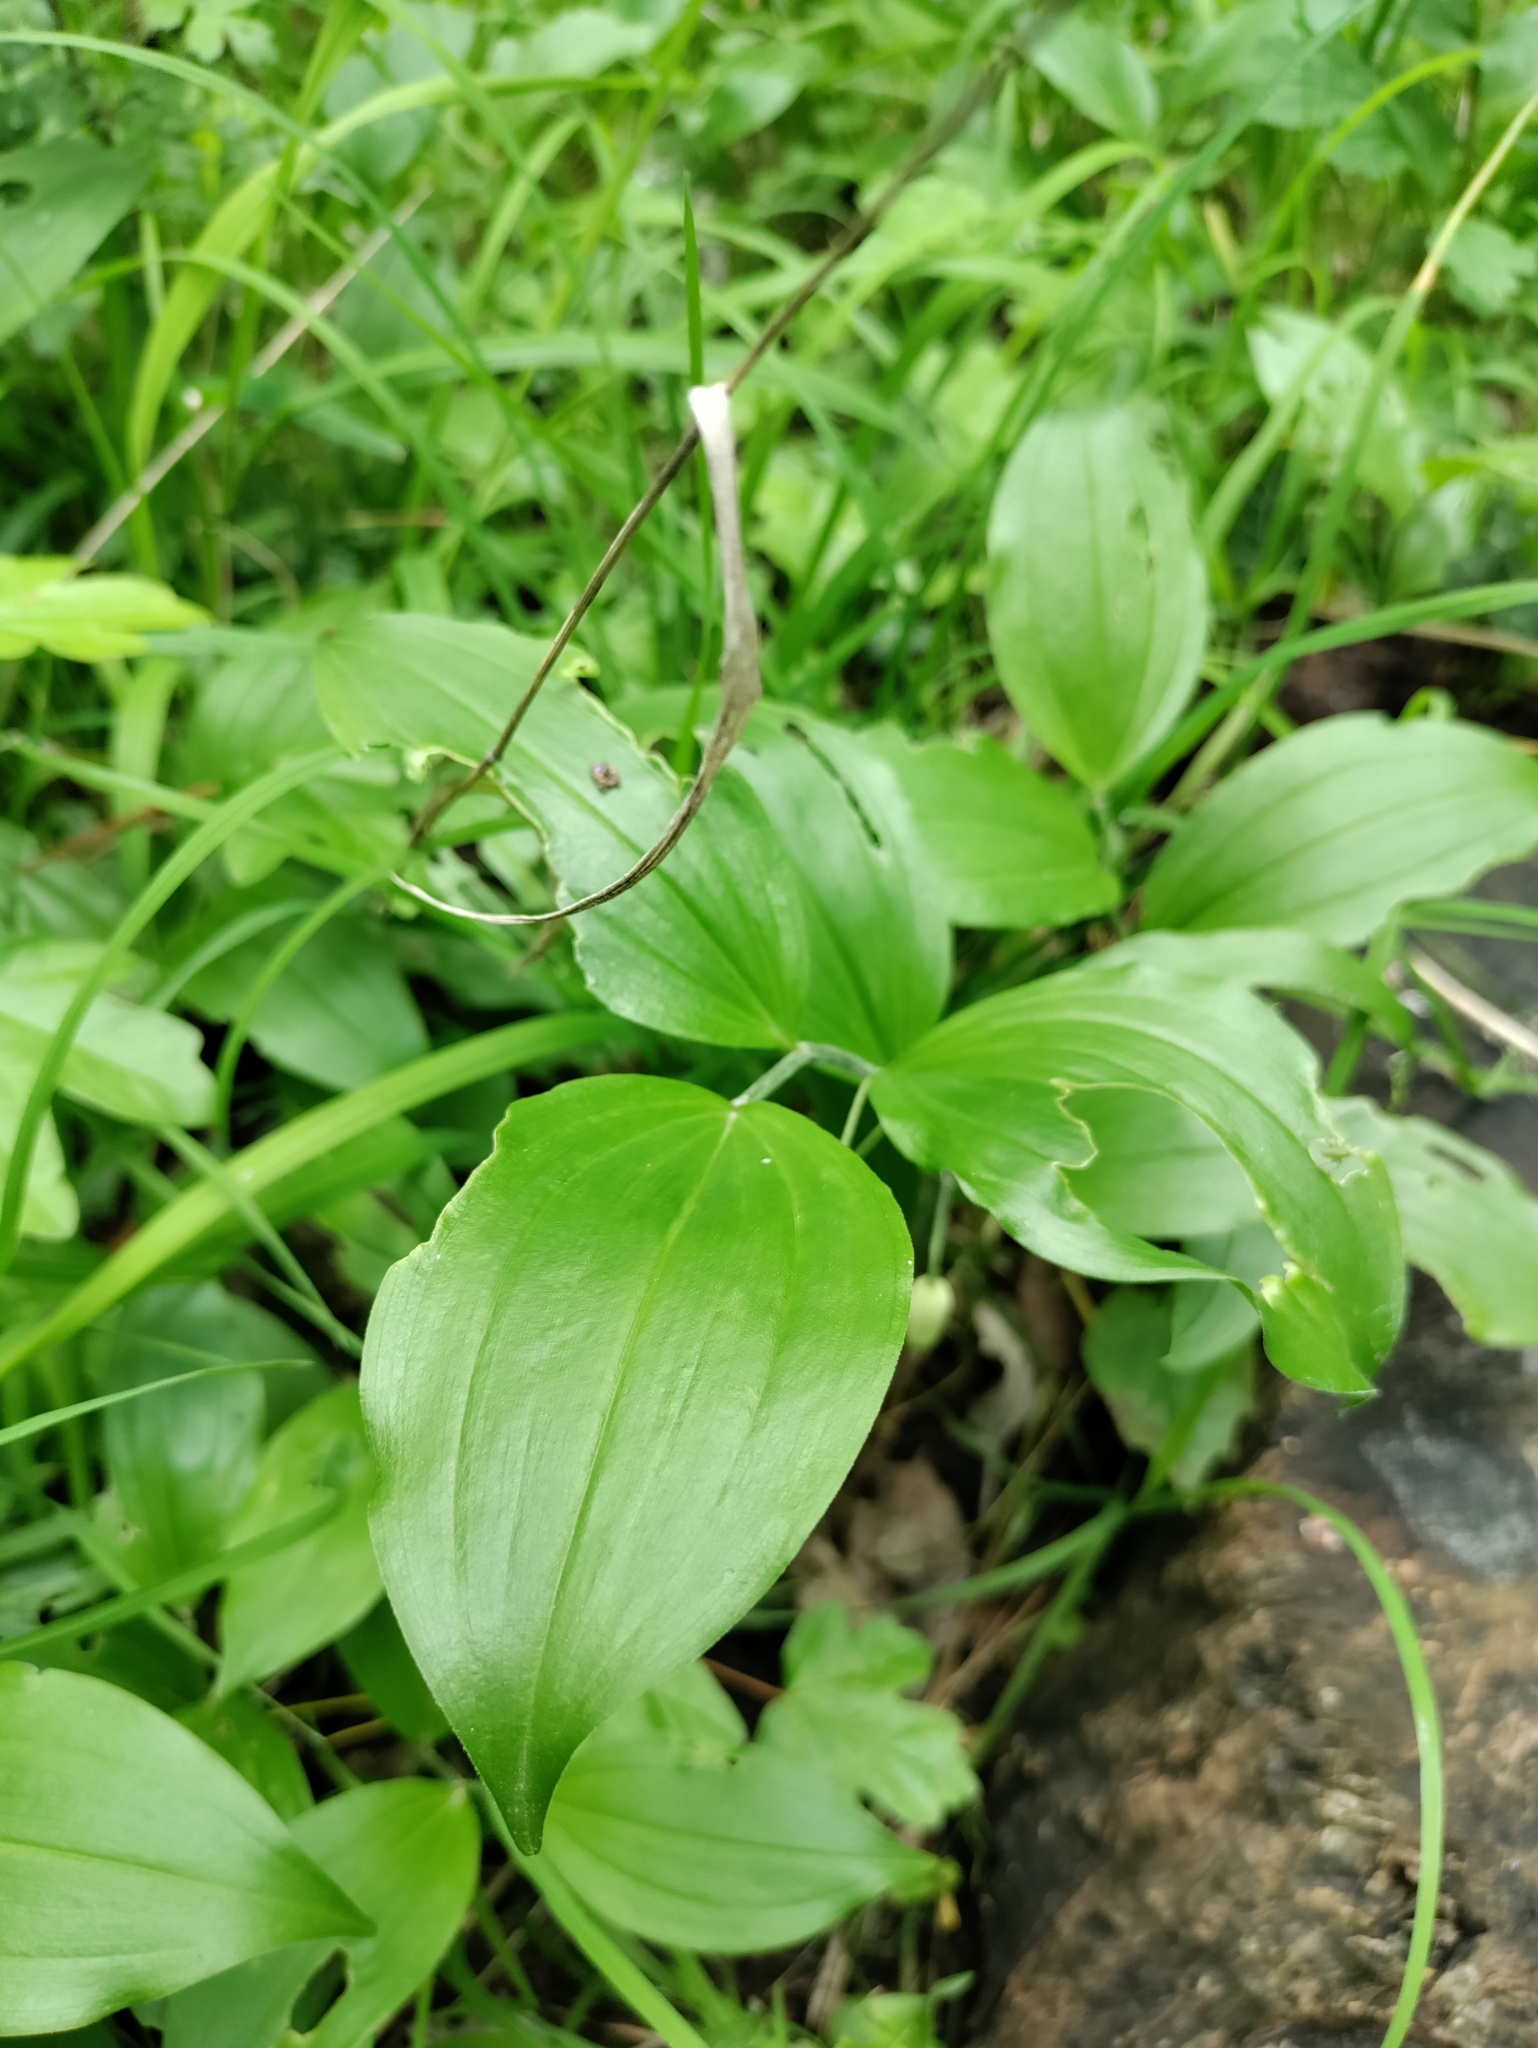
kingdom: Plantae
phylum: Tracheophyta
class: Liliopsida
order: Asparagales
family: Asparagaceae
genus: Polygonatum
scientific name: Polygonatum latifolium
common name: Broadleaf solomon's seal
